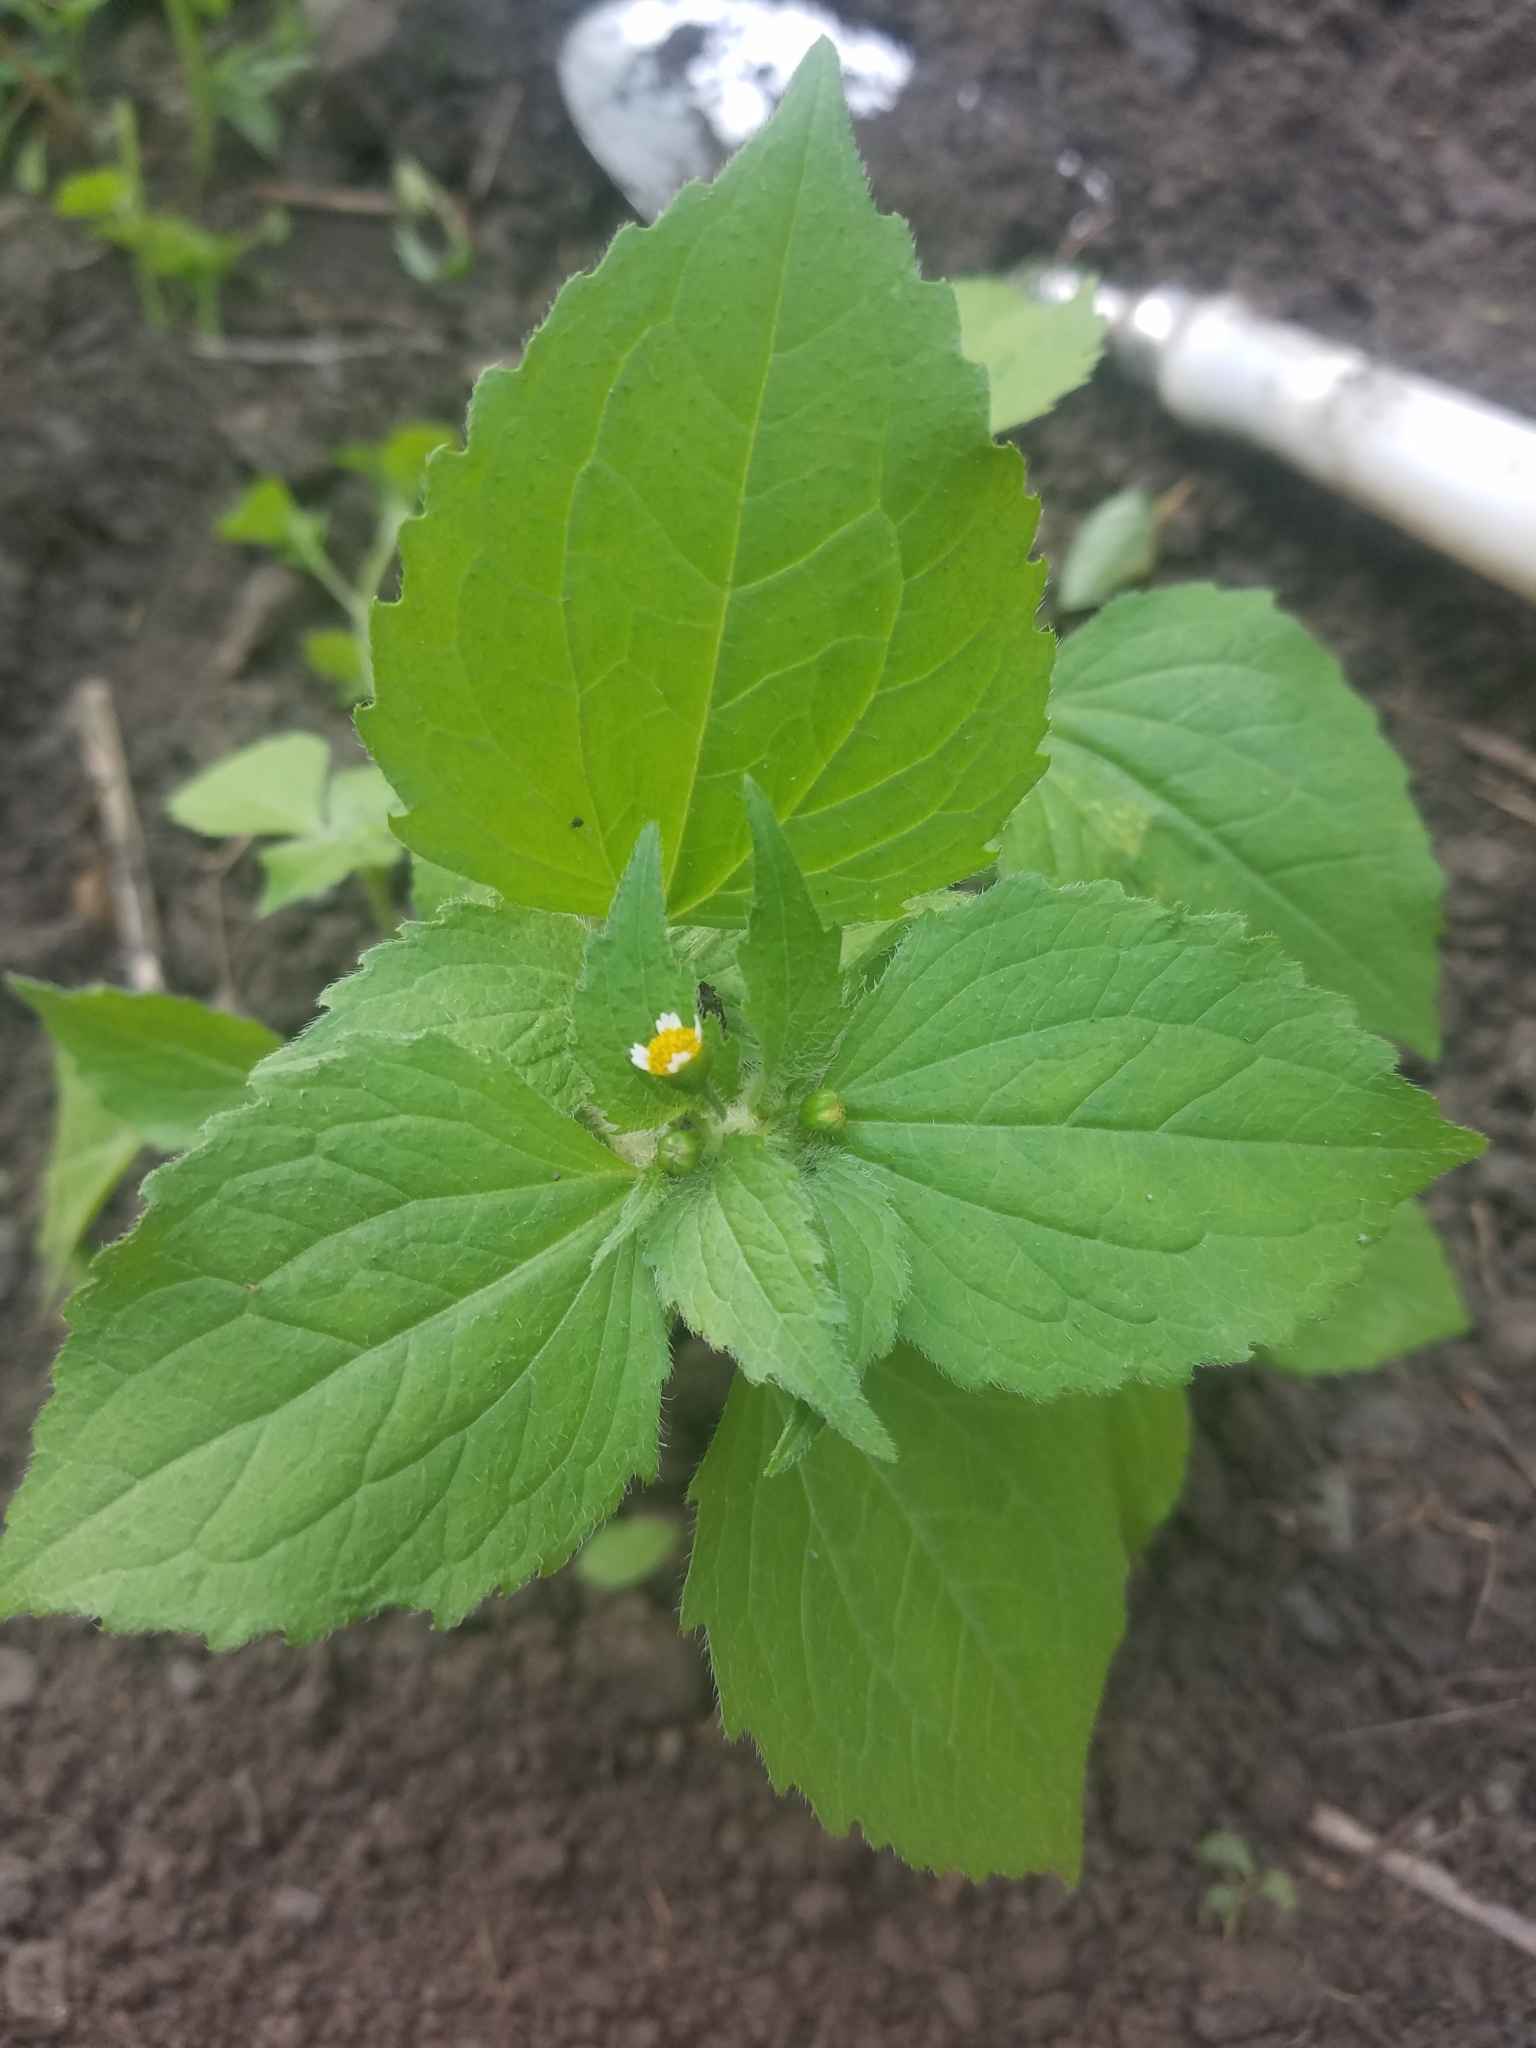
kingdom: Plantae
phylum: Tracheophyta
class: Magnoliopsida
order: Asterales
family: Asteraceae
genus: Galinsoga
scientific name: Galinsoga quadriradiata
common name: Shaggy soldier
